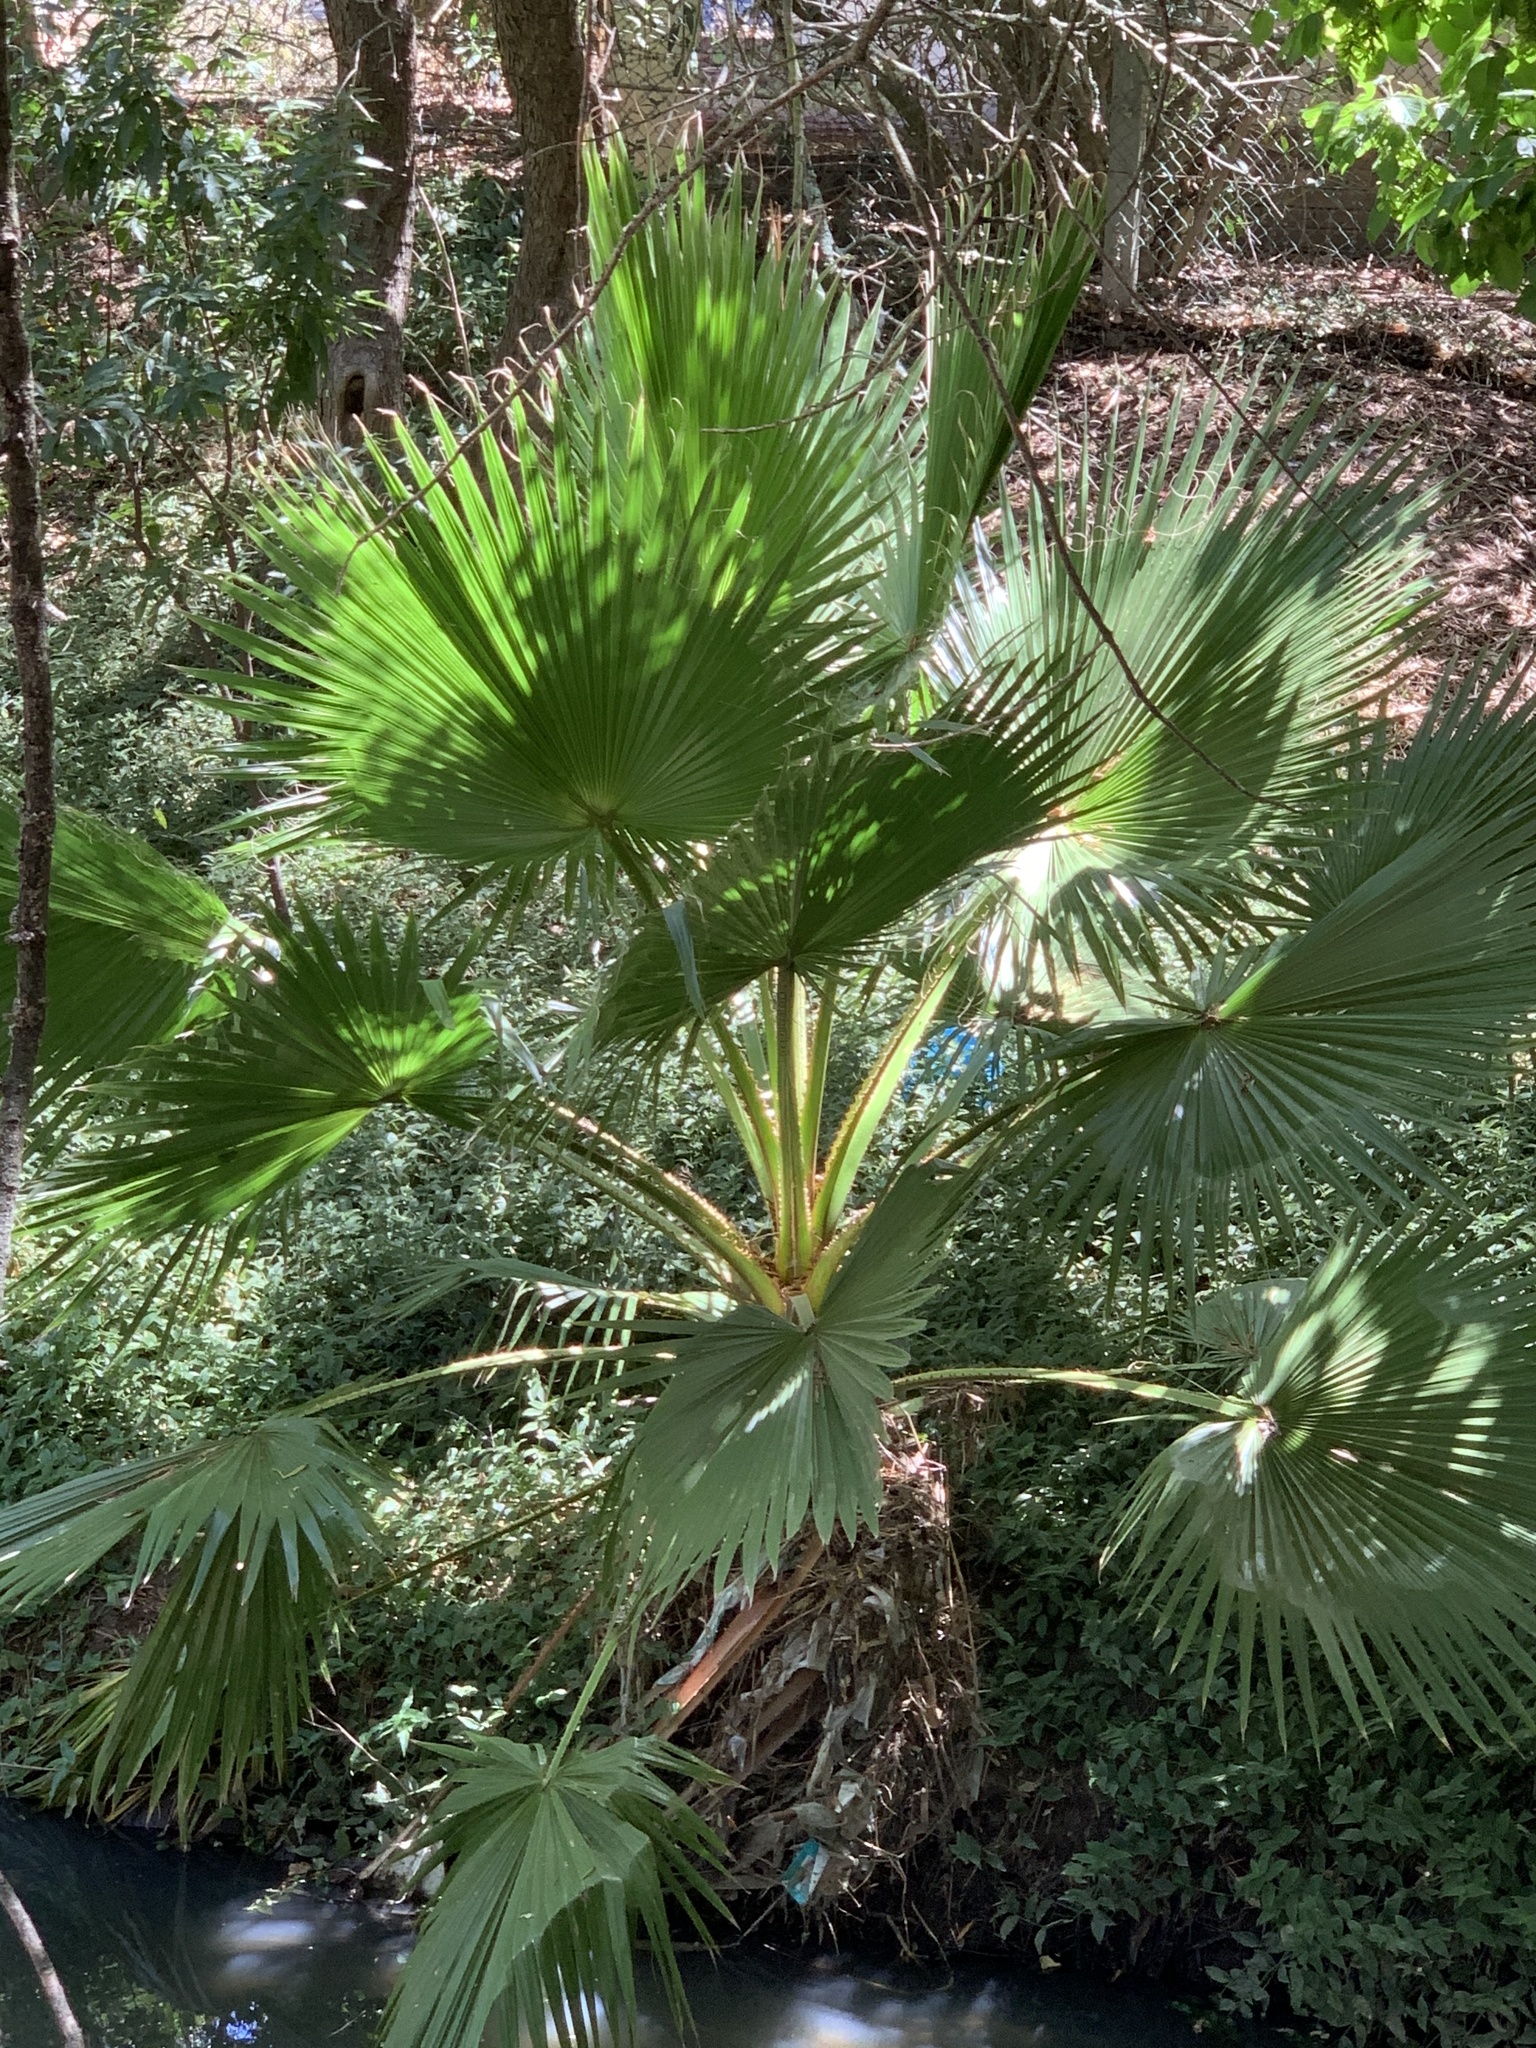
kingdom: Plantae
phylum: Tracheophyta
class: Liliopsida
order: Arecales
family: Arecaceae
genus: Washingtonia
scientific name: Washingtonia robusta
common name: Mexican fan palm
